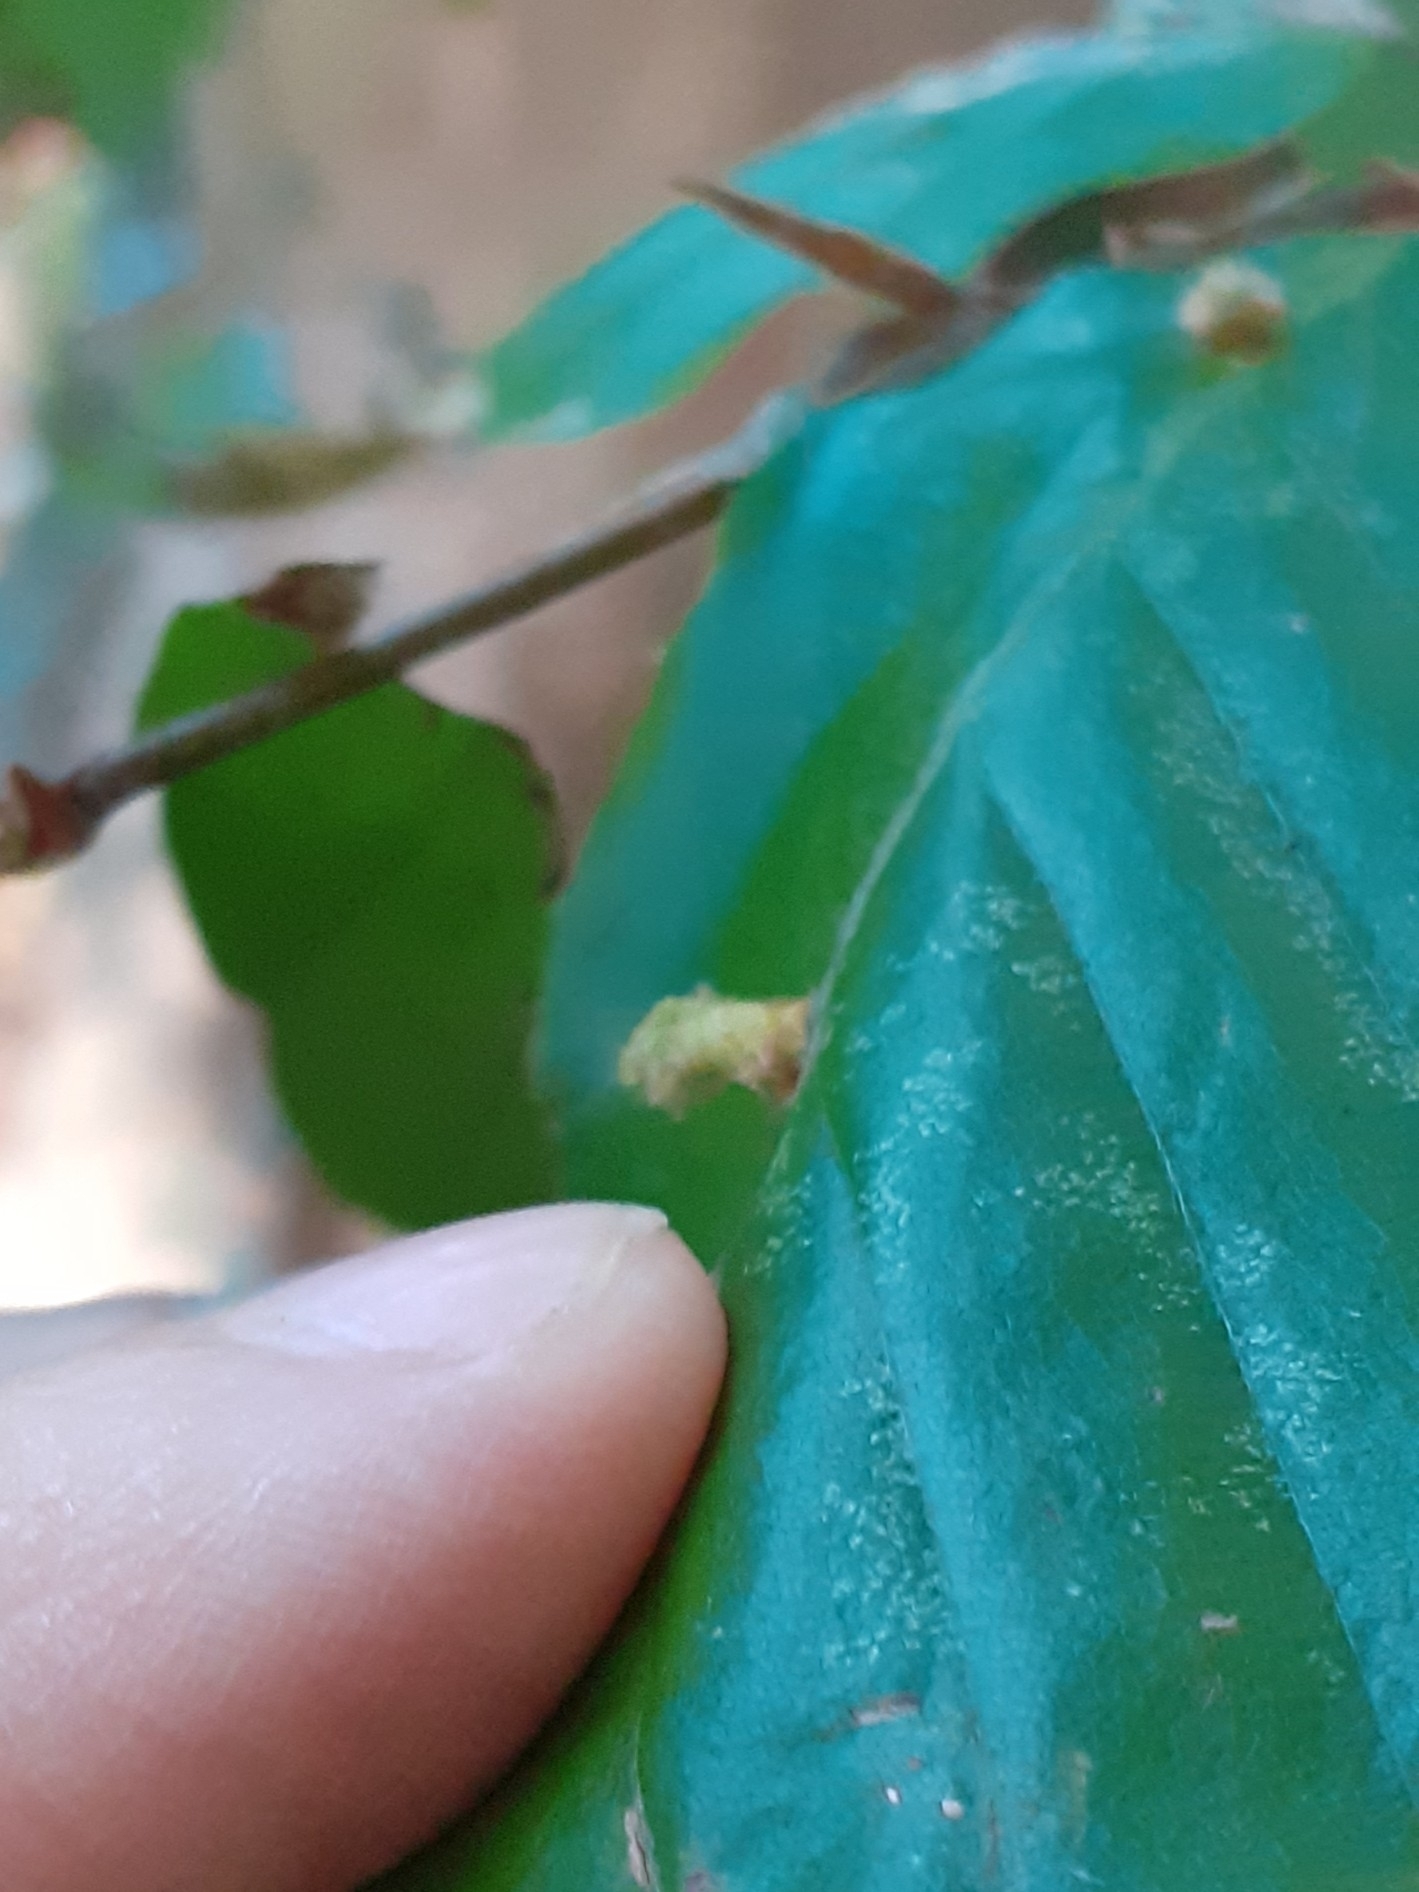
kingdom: Animalia
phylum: Arthropoda
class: Insecta
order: Diptera
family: Cecidomyiidae
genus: Hartigiola
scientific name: Hartigiola annulipes
